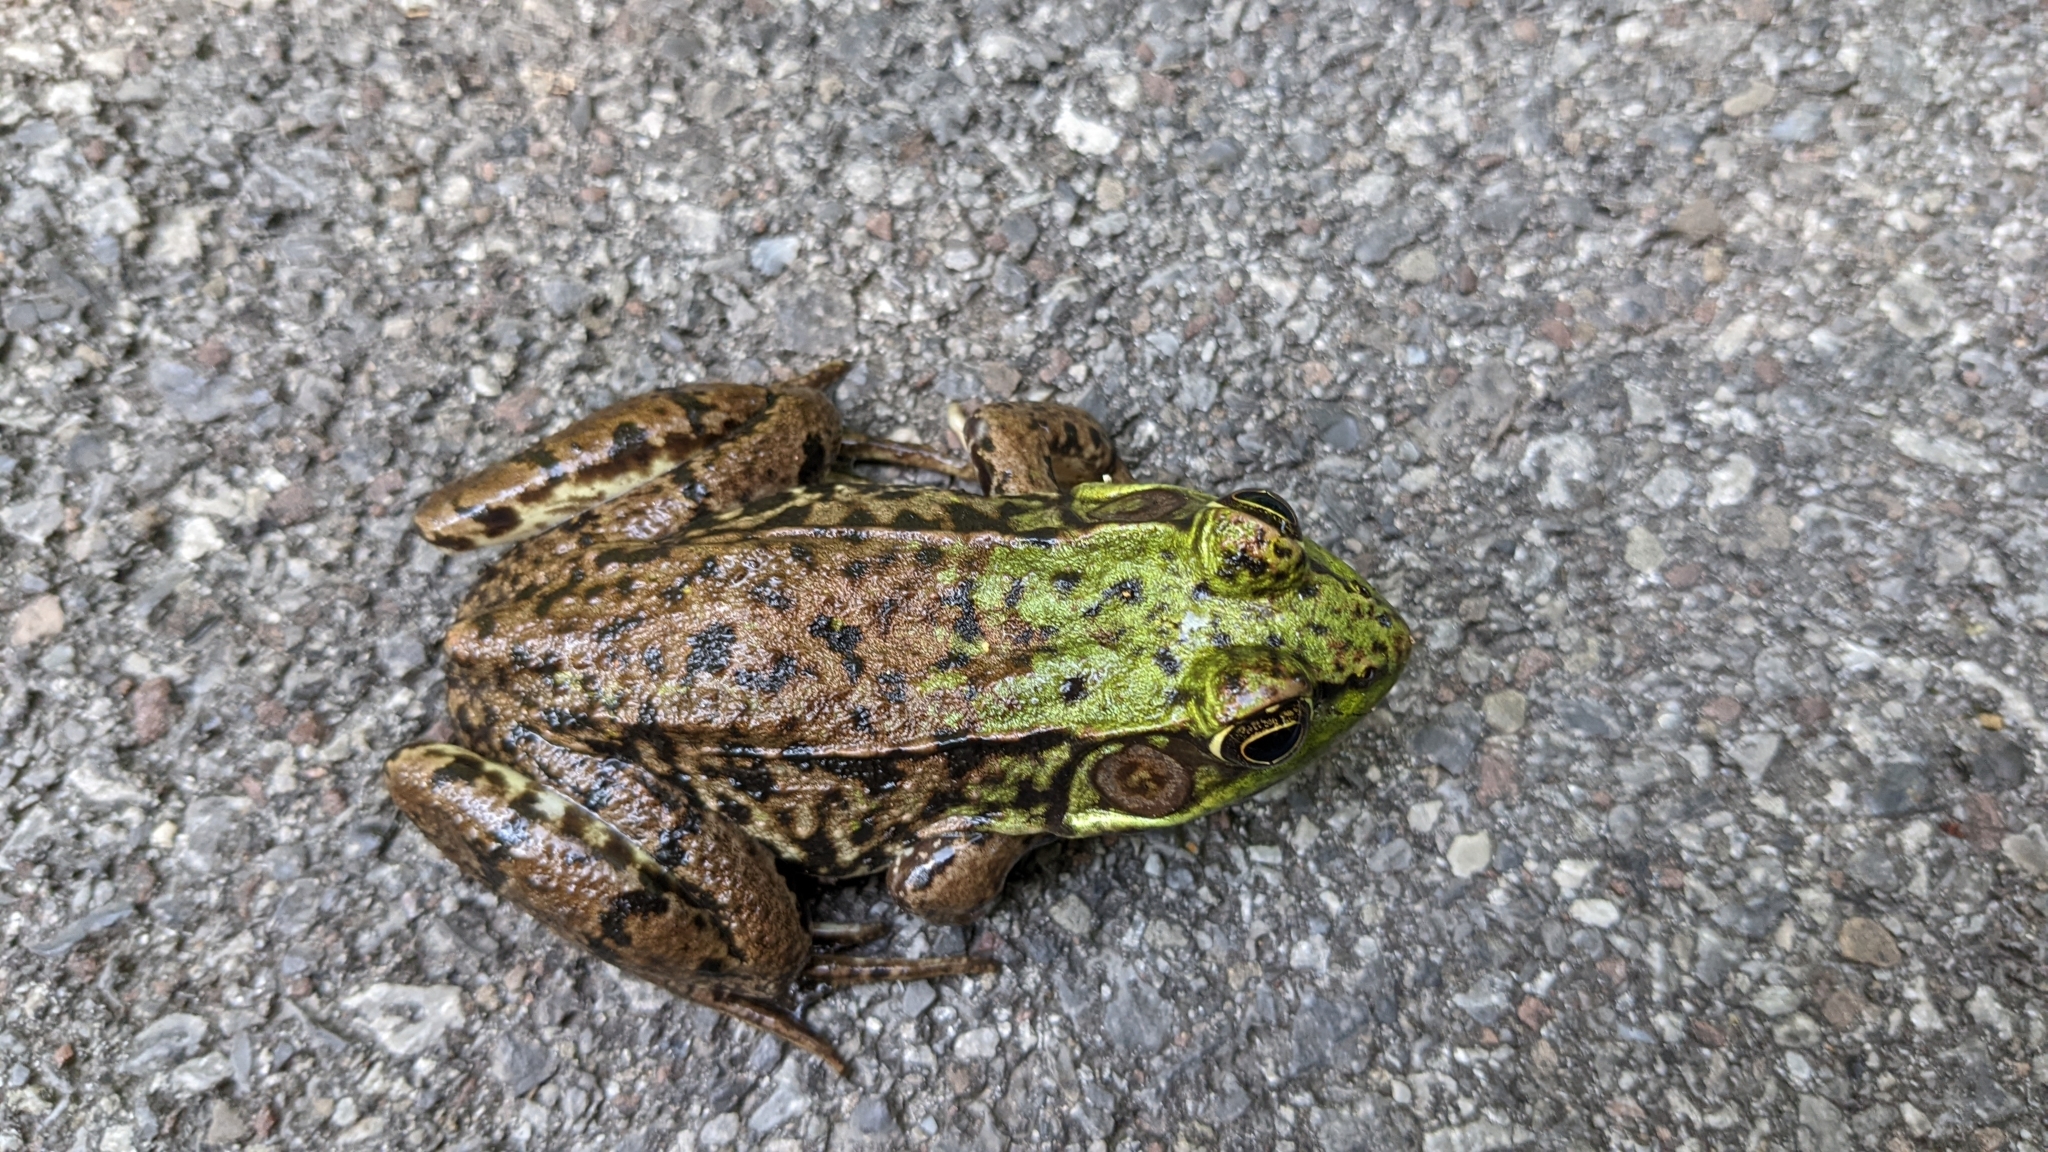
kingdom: Animalia
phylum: Chordata
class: Amphibia
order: Anura
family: Ranidae
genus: Lithobates
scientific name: Lithobates clamitans
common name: Green frog
